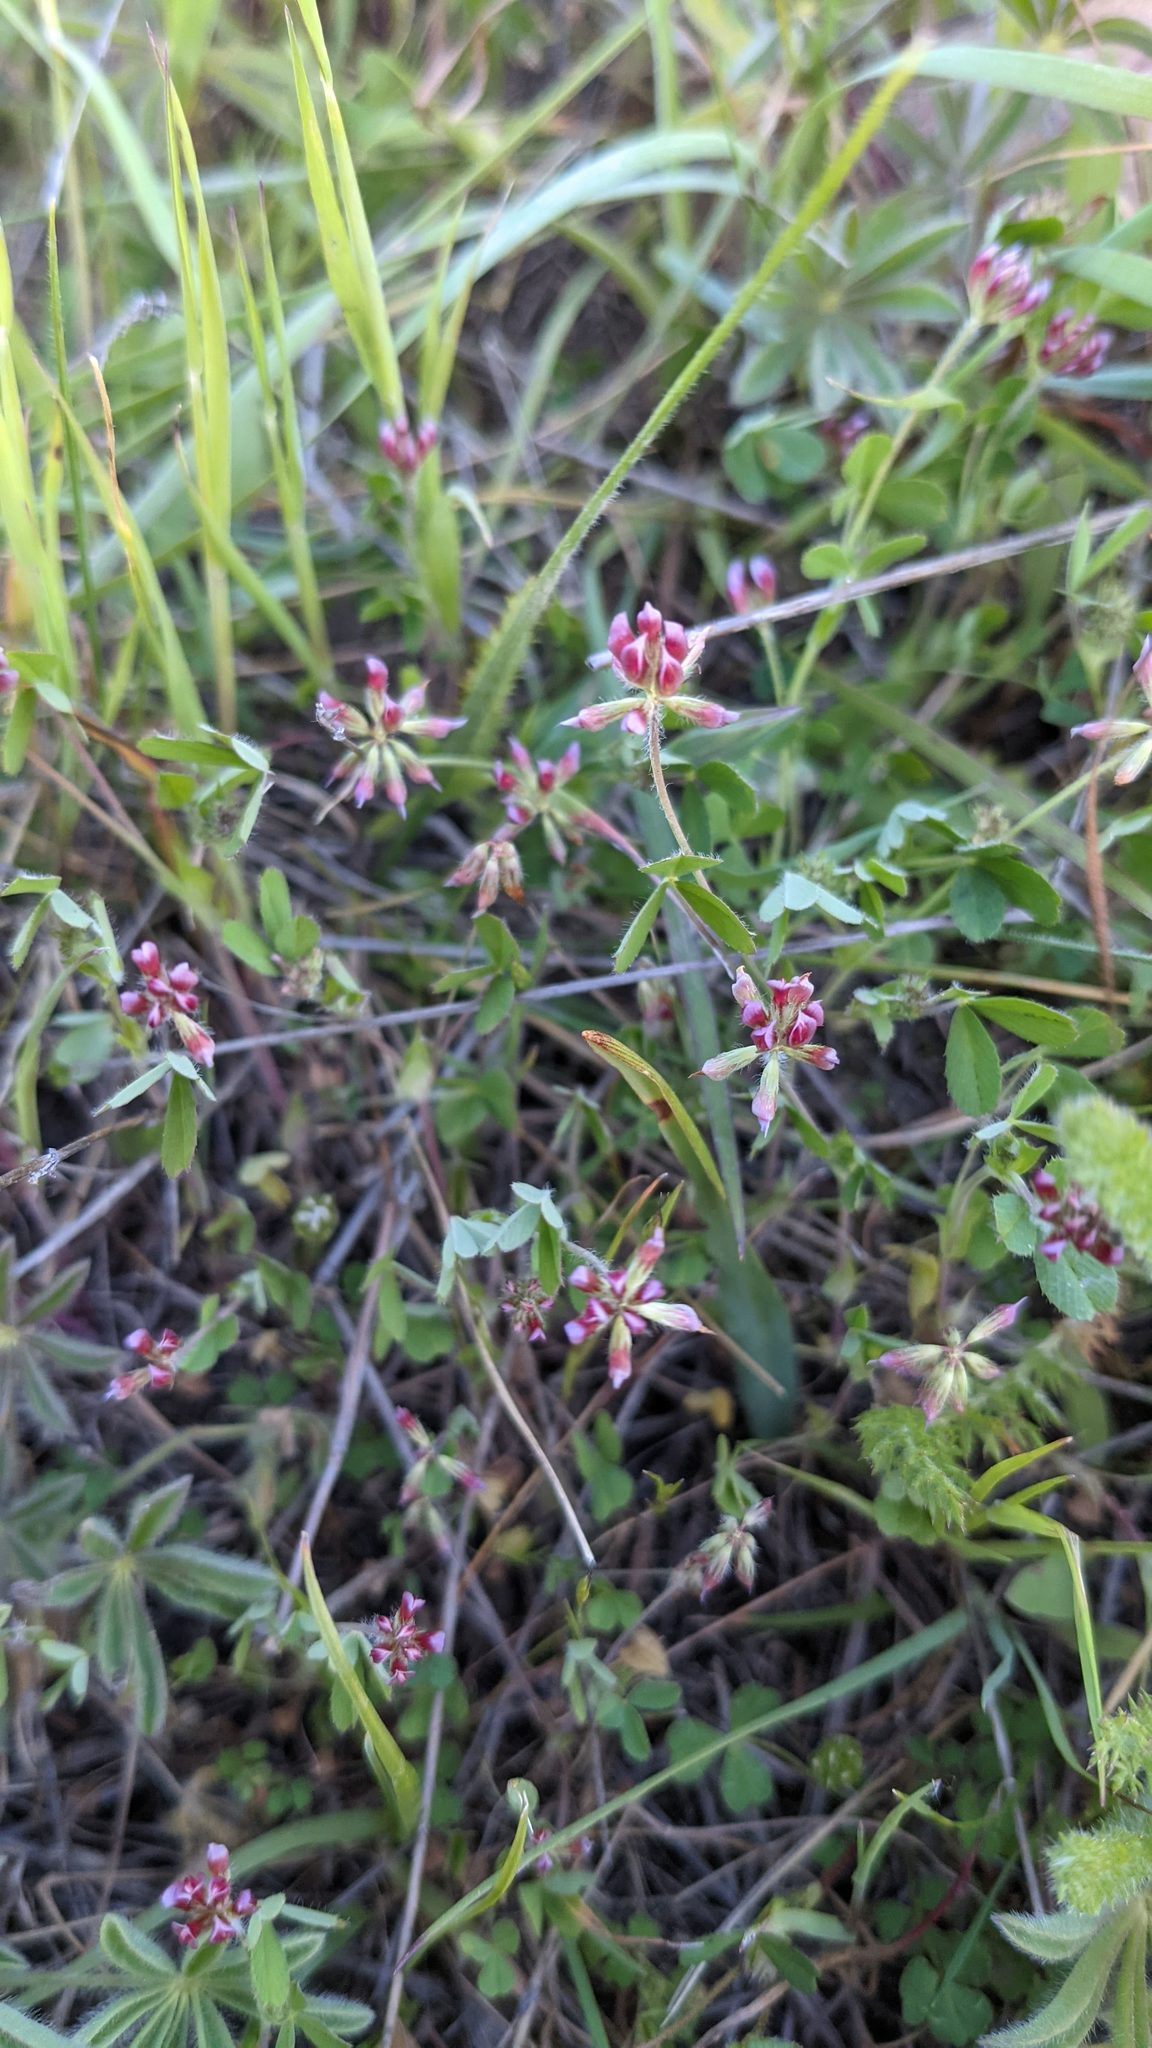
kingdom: Plantae
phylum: Tracheophyta
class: Magnoliopsida
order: Fabales
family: Fabaceae
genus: Trifolium
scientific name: Trifolium bifidum
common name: Notch-leaf clover
